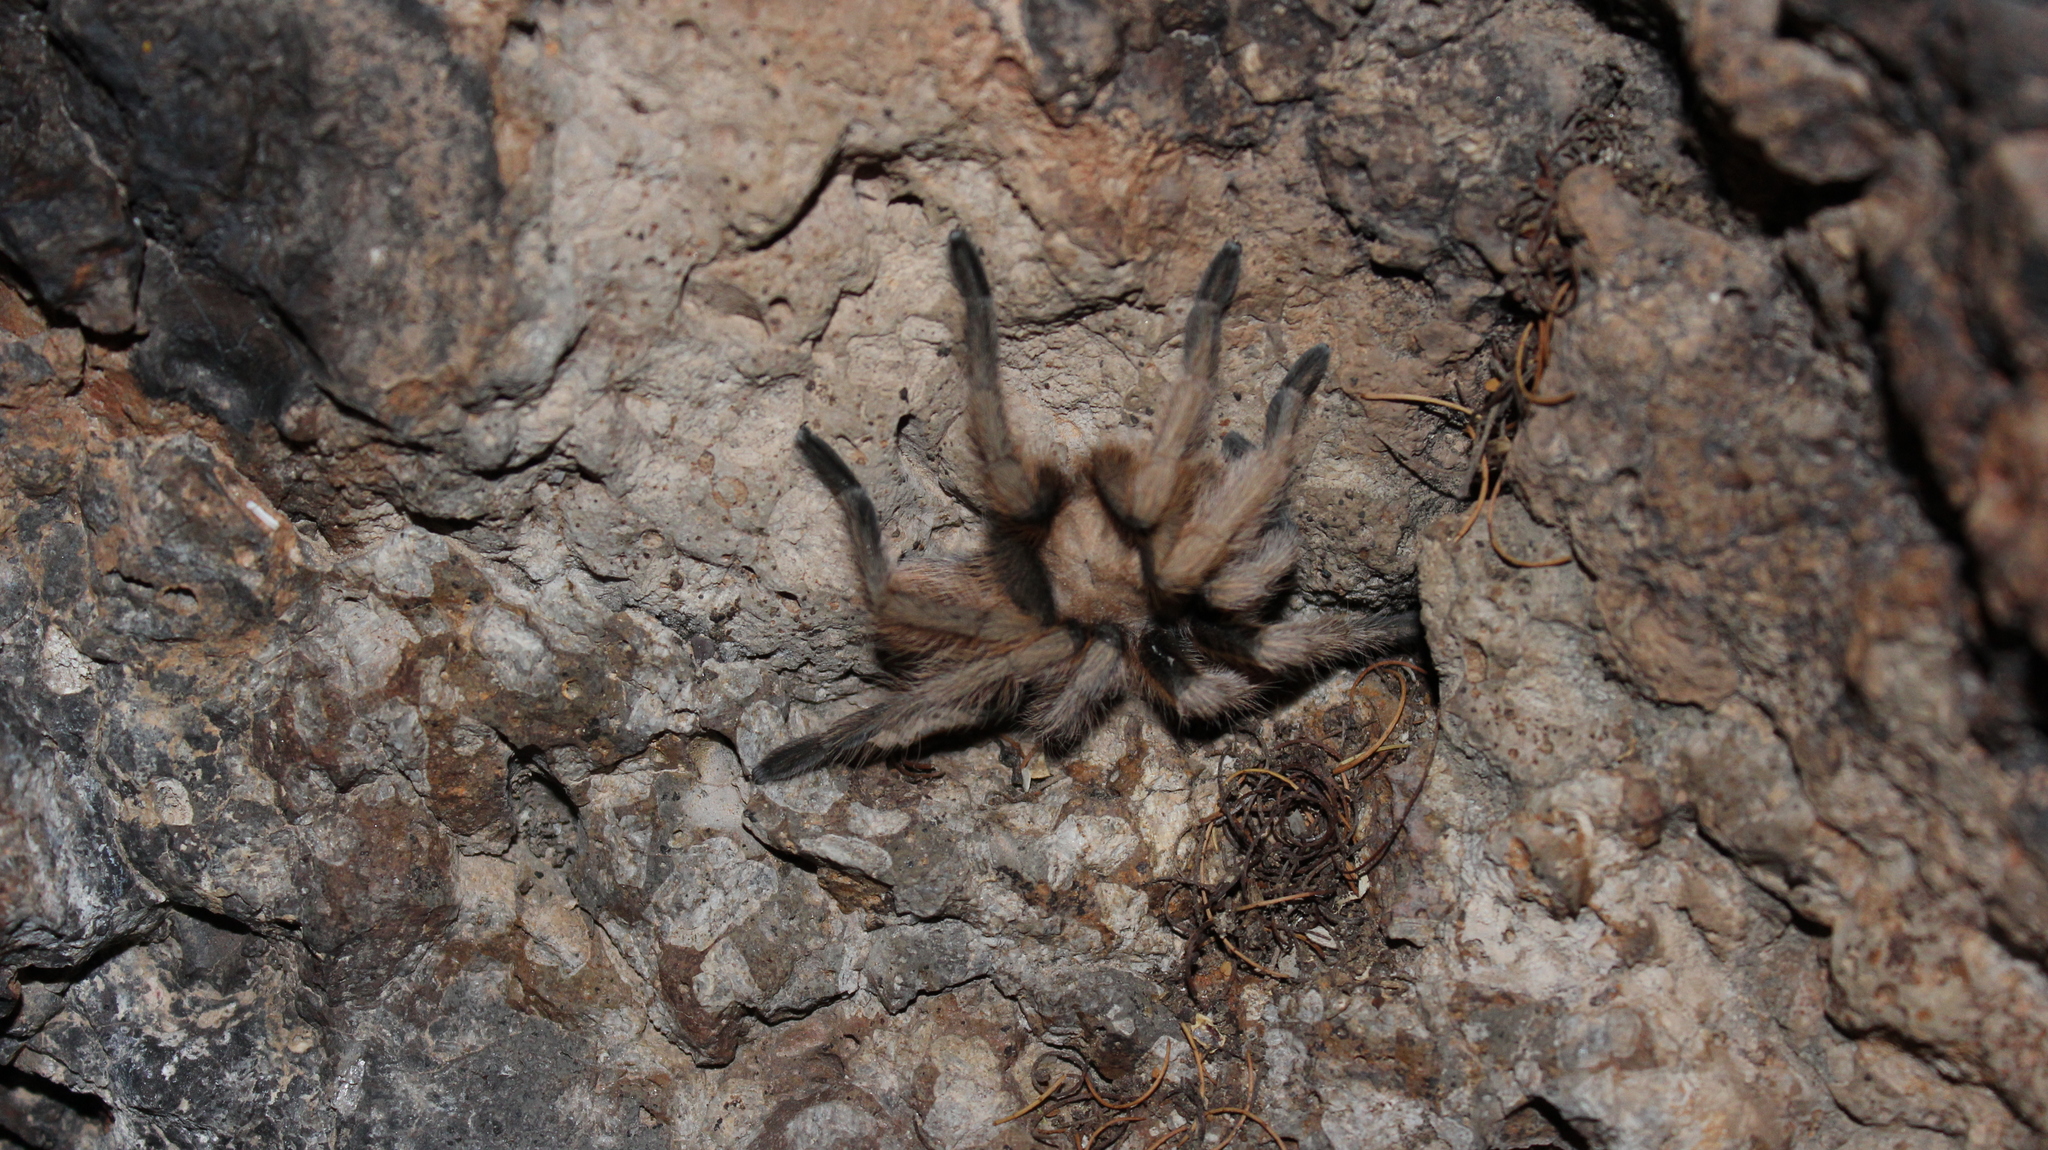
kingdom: Animalia
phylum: Arthropoda
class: Arachnida
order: Araneae
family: Theraphosidae
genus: Aphonopelma
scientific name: Aphonopelma chalcodes
